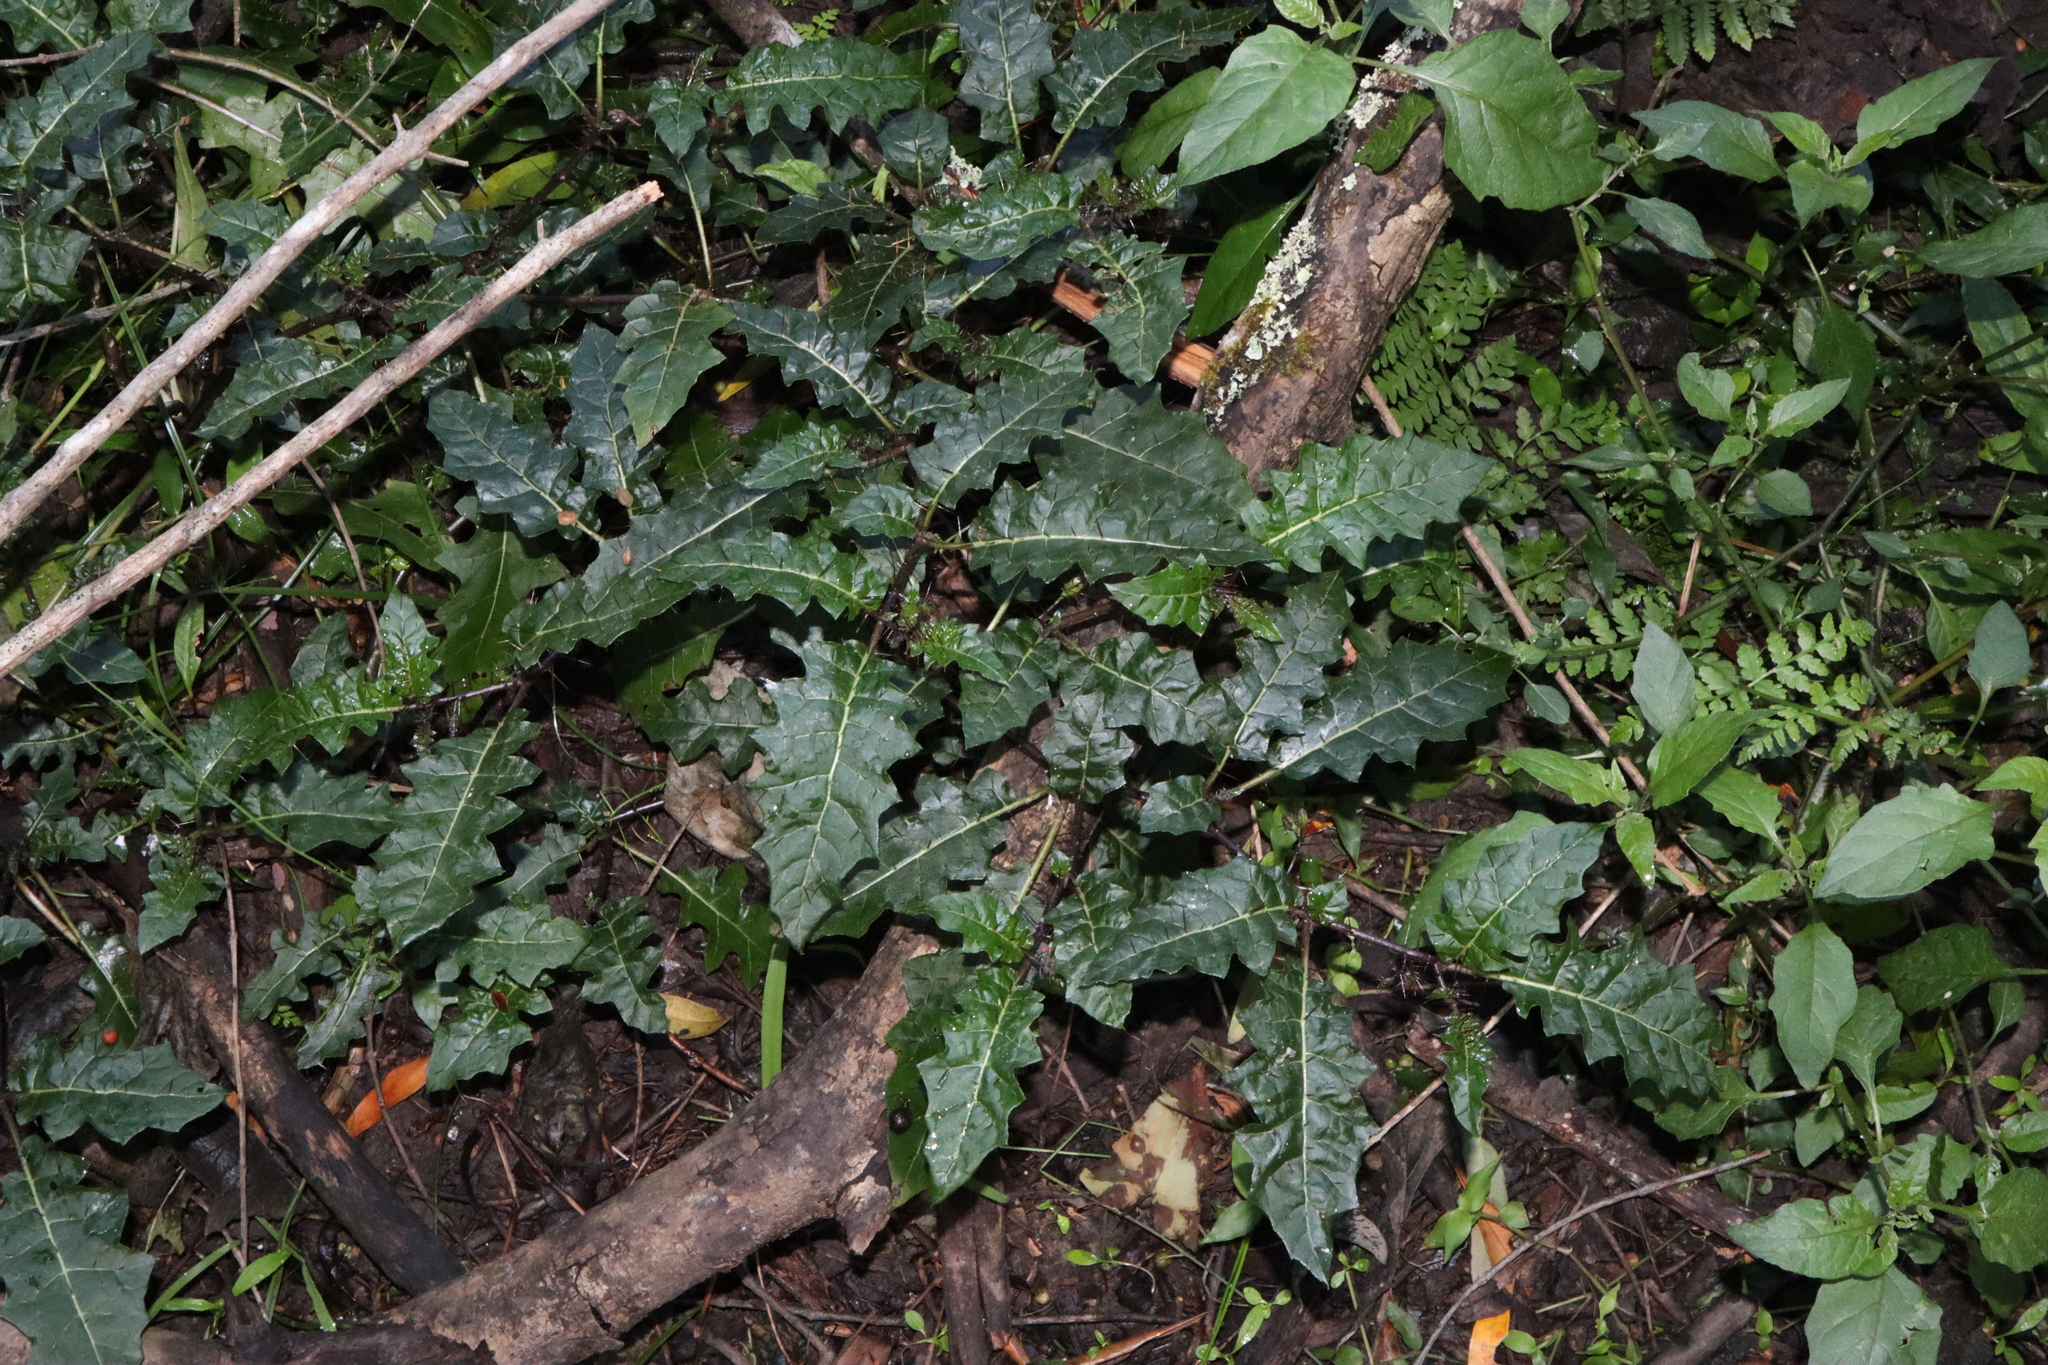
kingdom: Plantae
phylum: Tracheophyta
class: Magnoliopsida
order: Solanales
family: Solanaceae
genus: Solanum
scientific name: Solanum prinophyllum
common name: Forest nightshade
